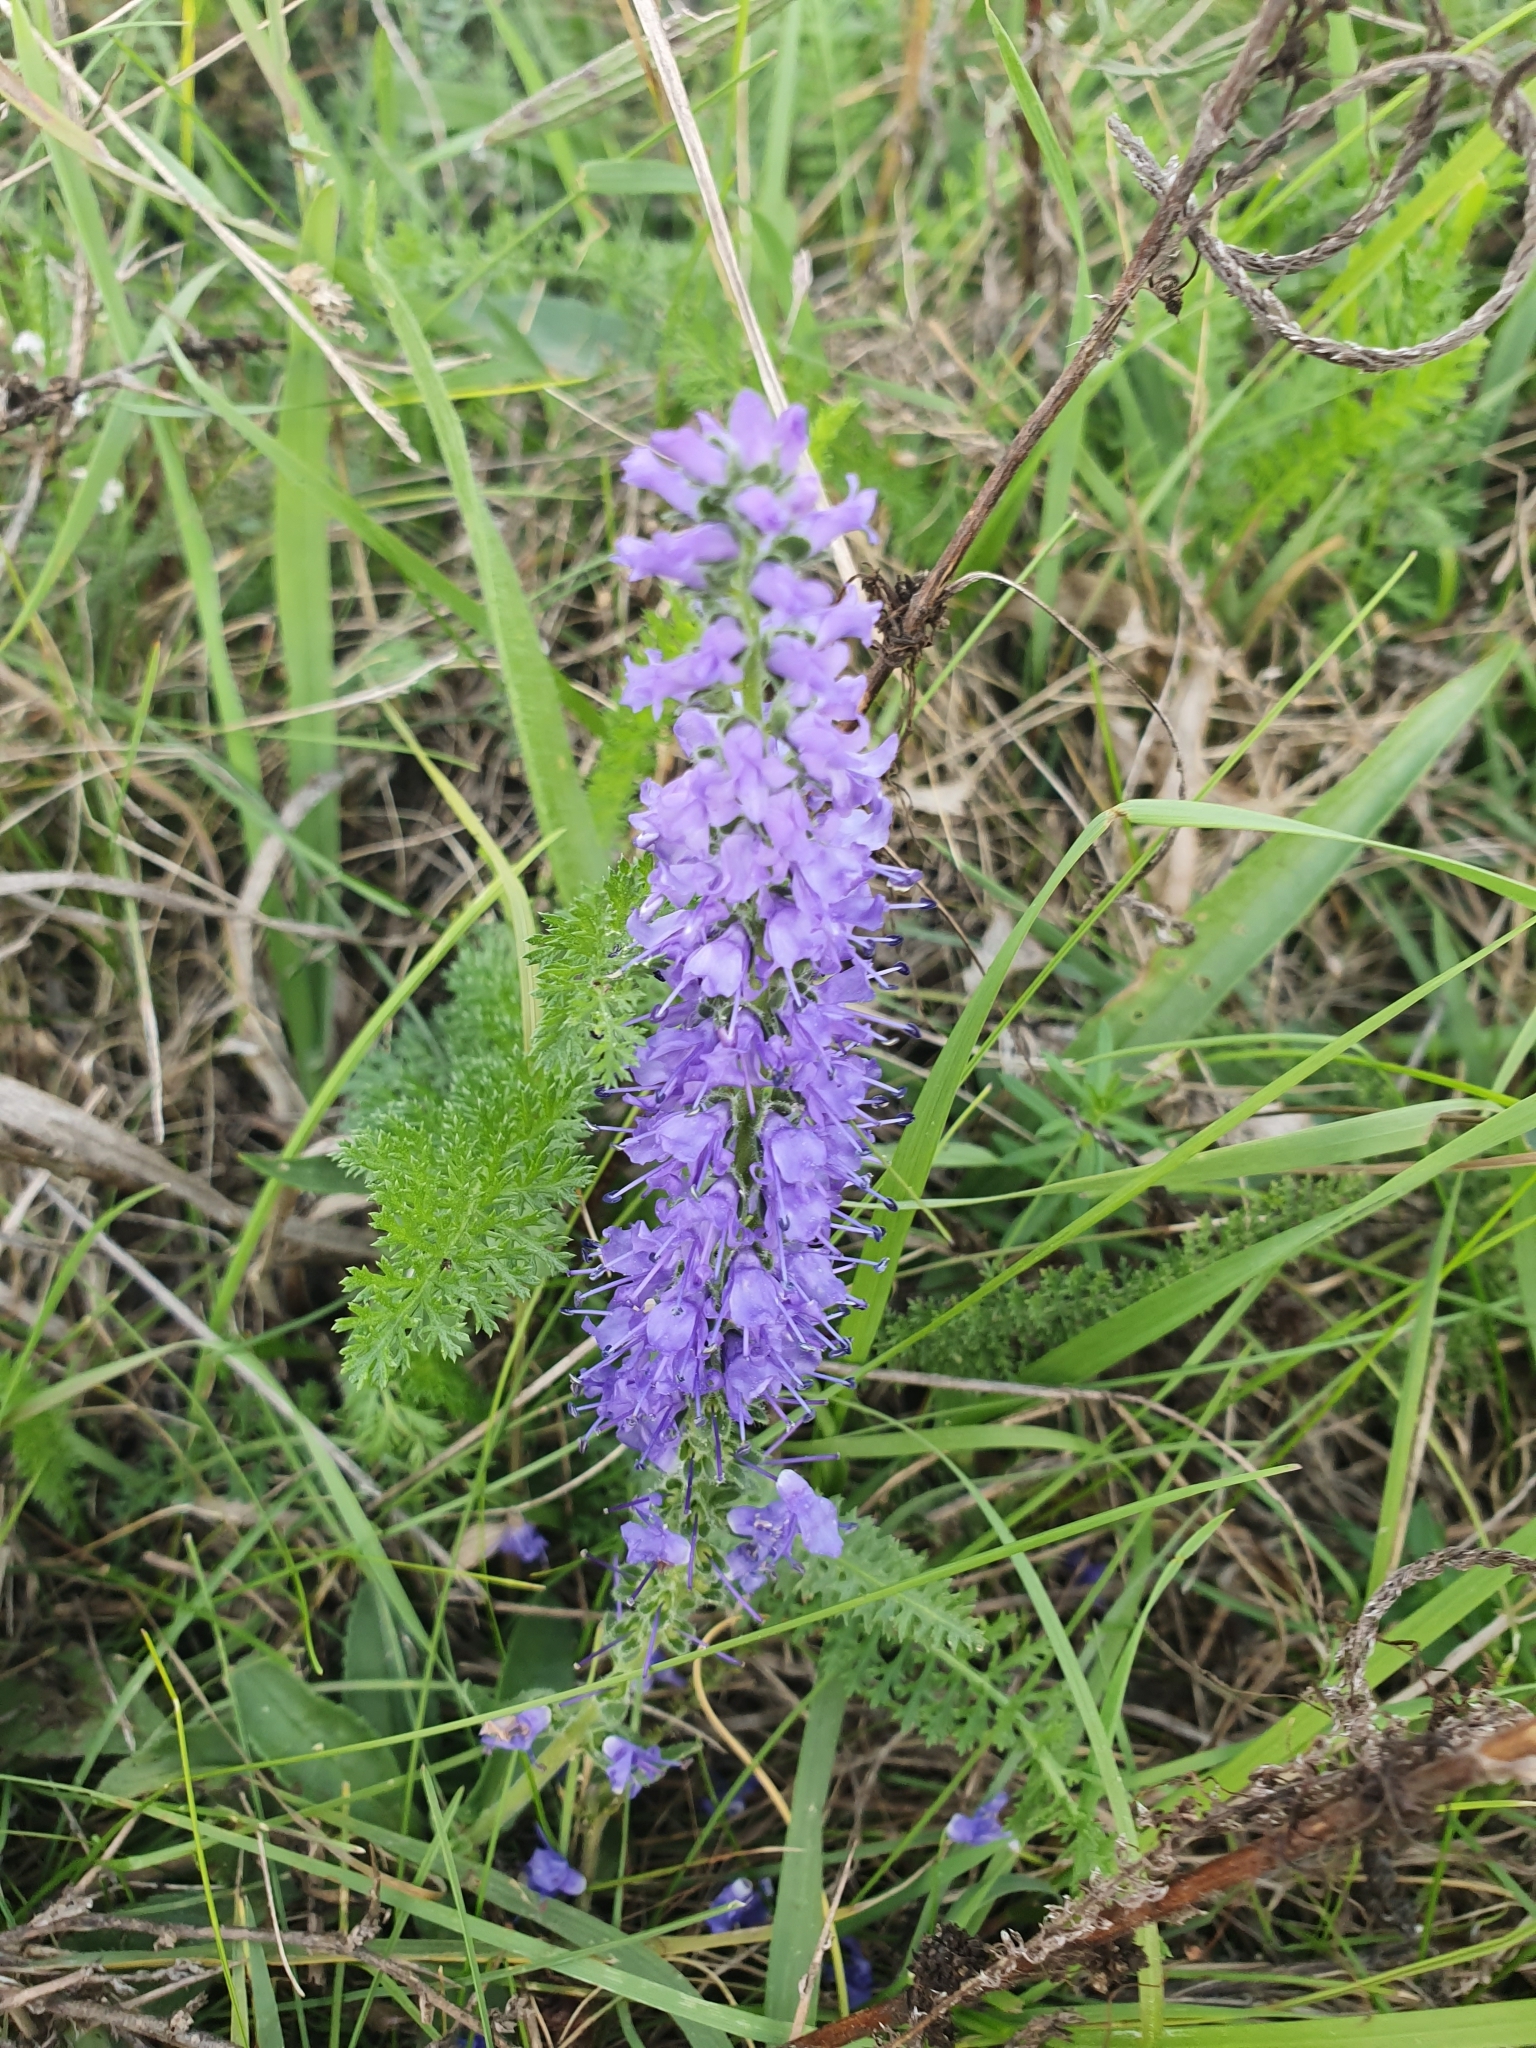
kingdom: Plantae
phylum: Tracheophyta
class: Magnoliopsida
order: Lamiales
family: Plantaginaceae
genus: Veronica
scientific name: Veronica spicata
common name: Spiked speedwell
